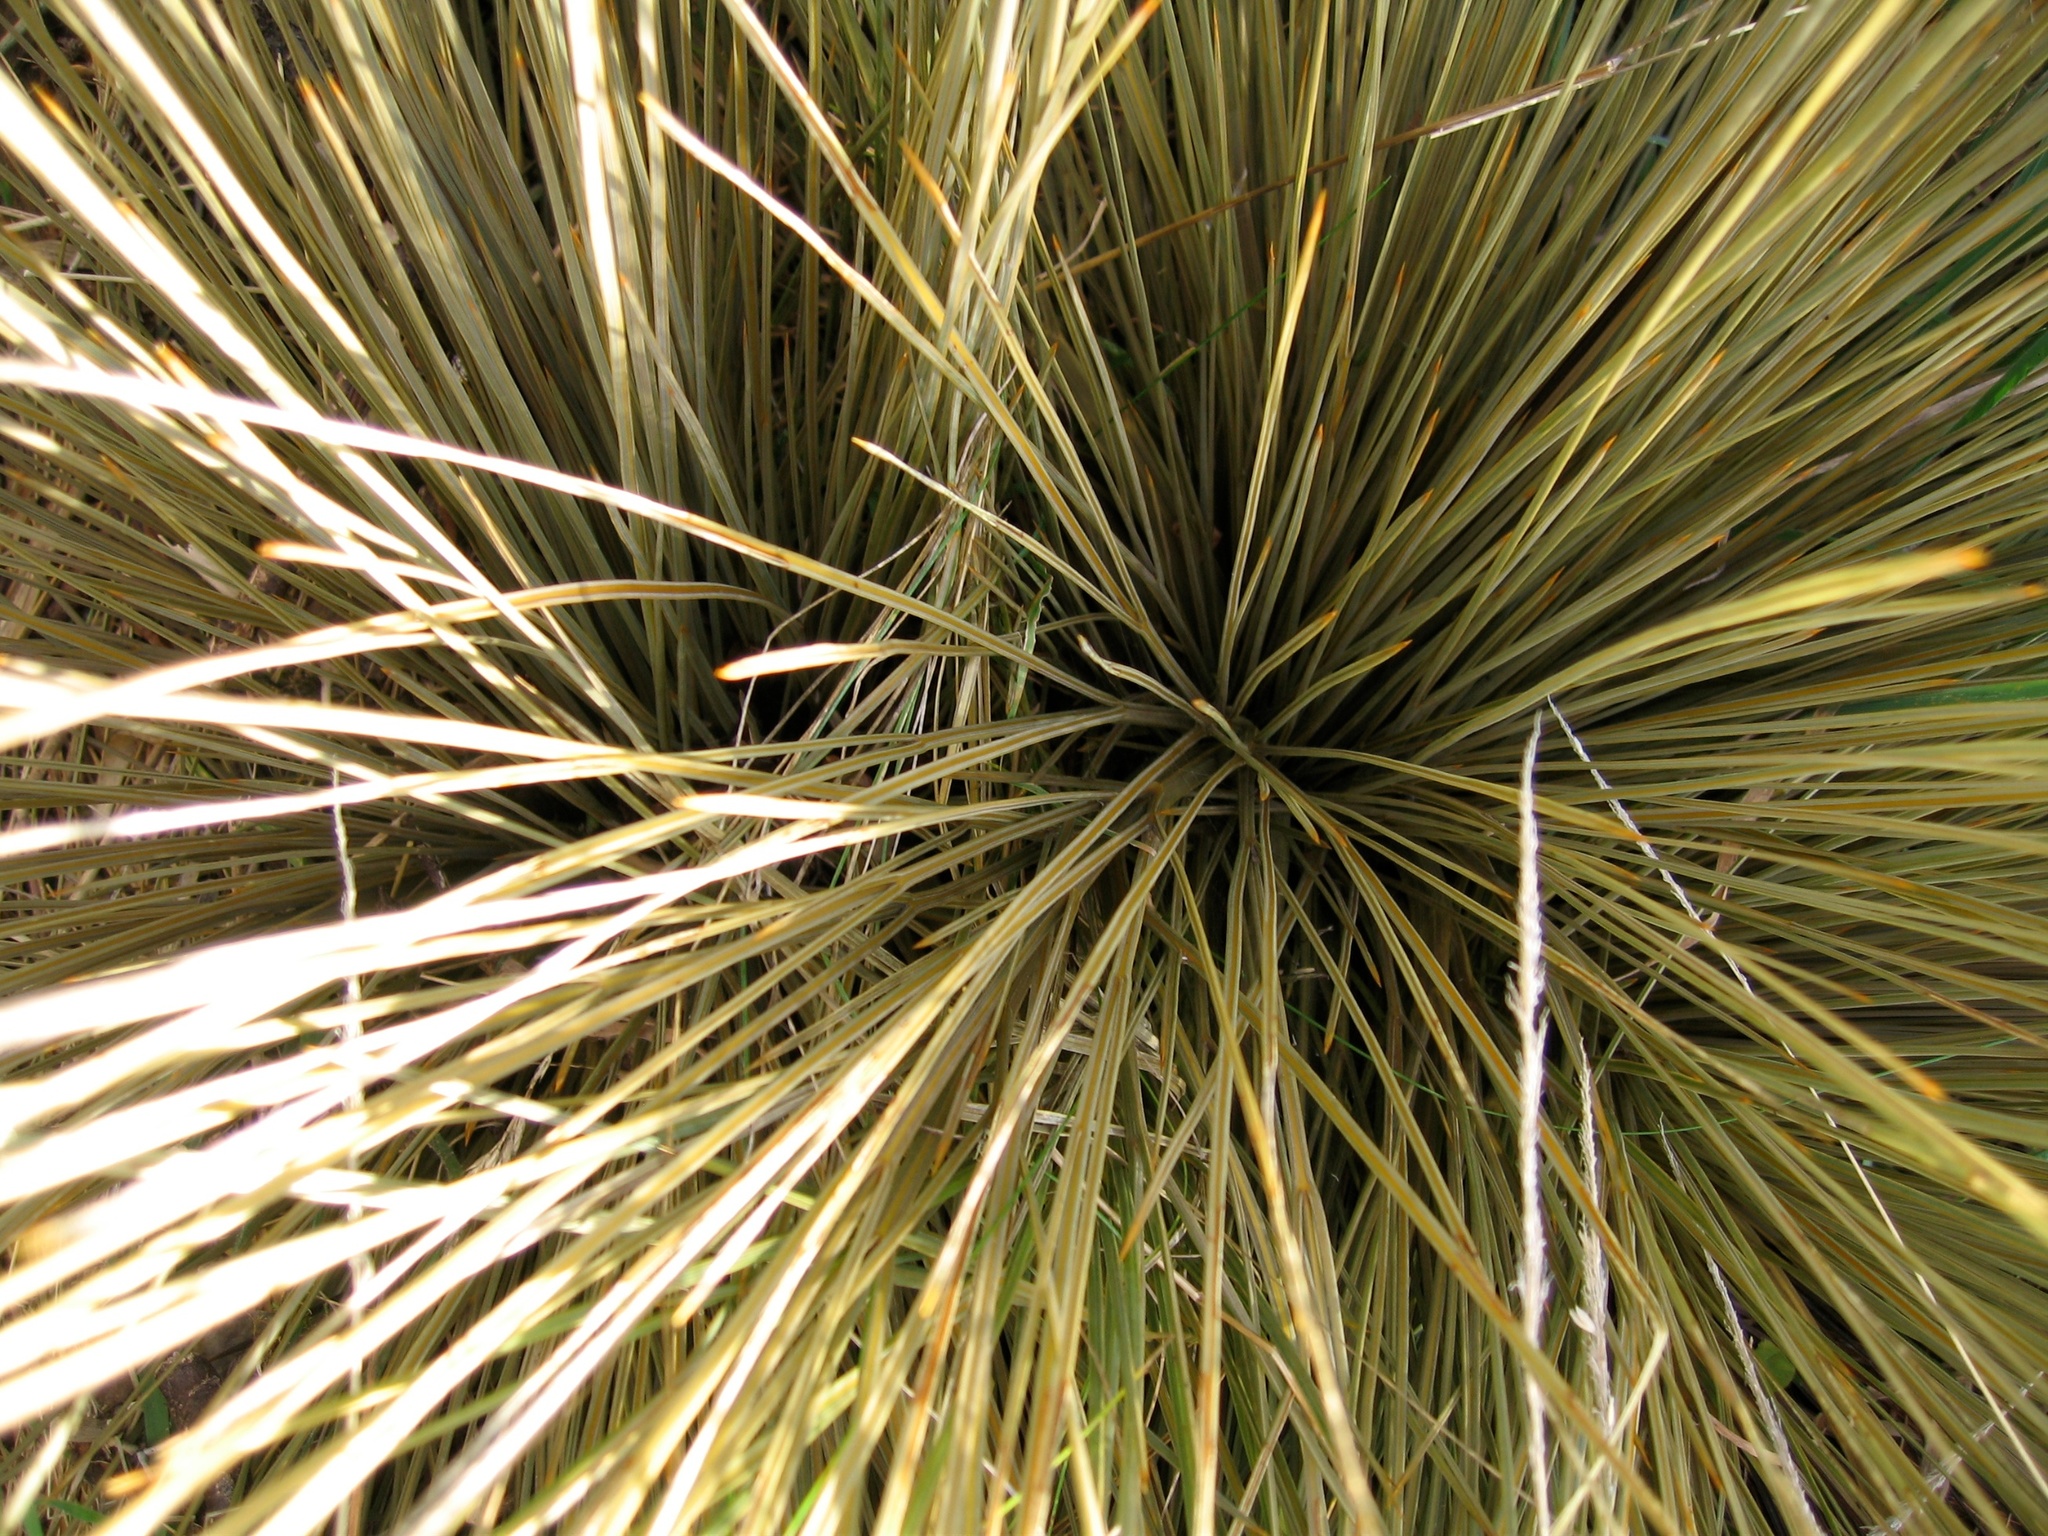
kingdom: Plantae
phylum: Tracheophyta
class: Magnoliopsida
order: Apiales
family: Apiaceae
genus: Aciphylla
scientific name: Aciphylla subflabellata
